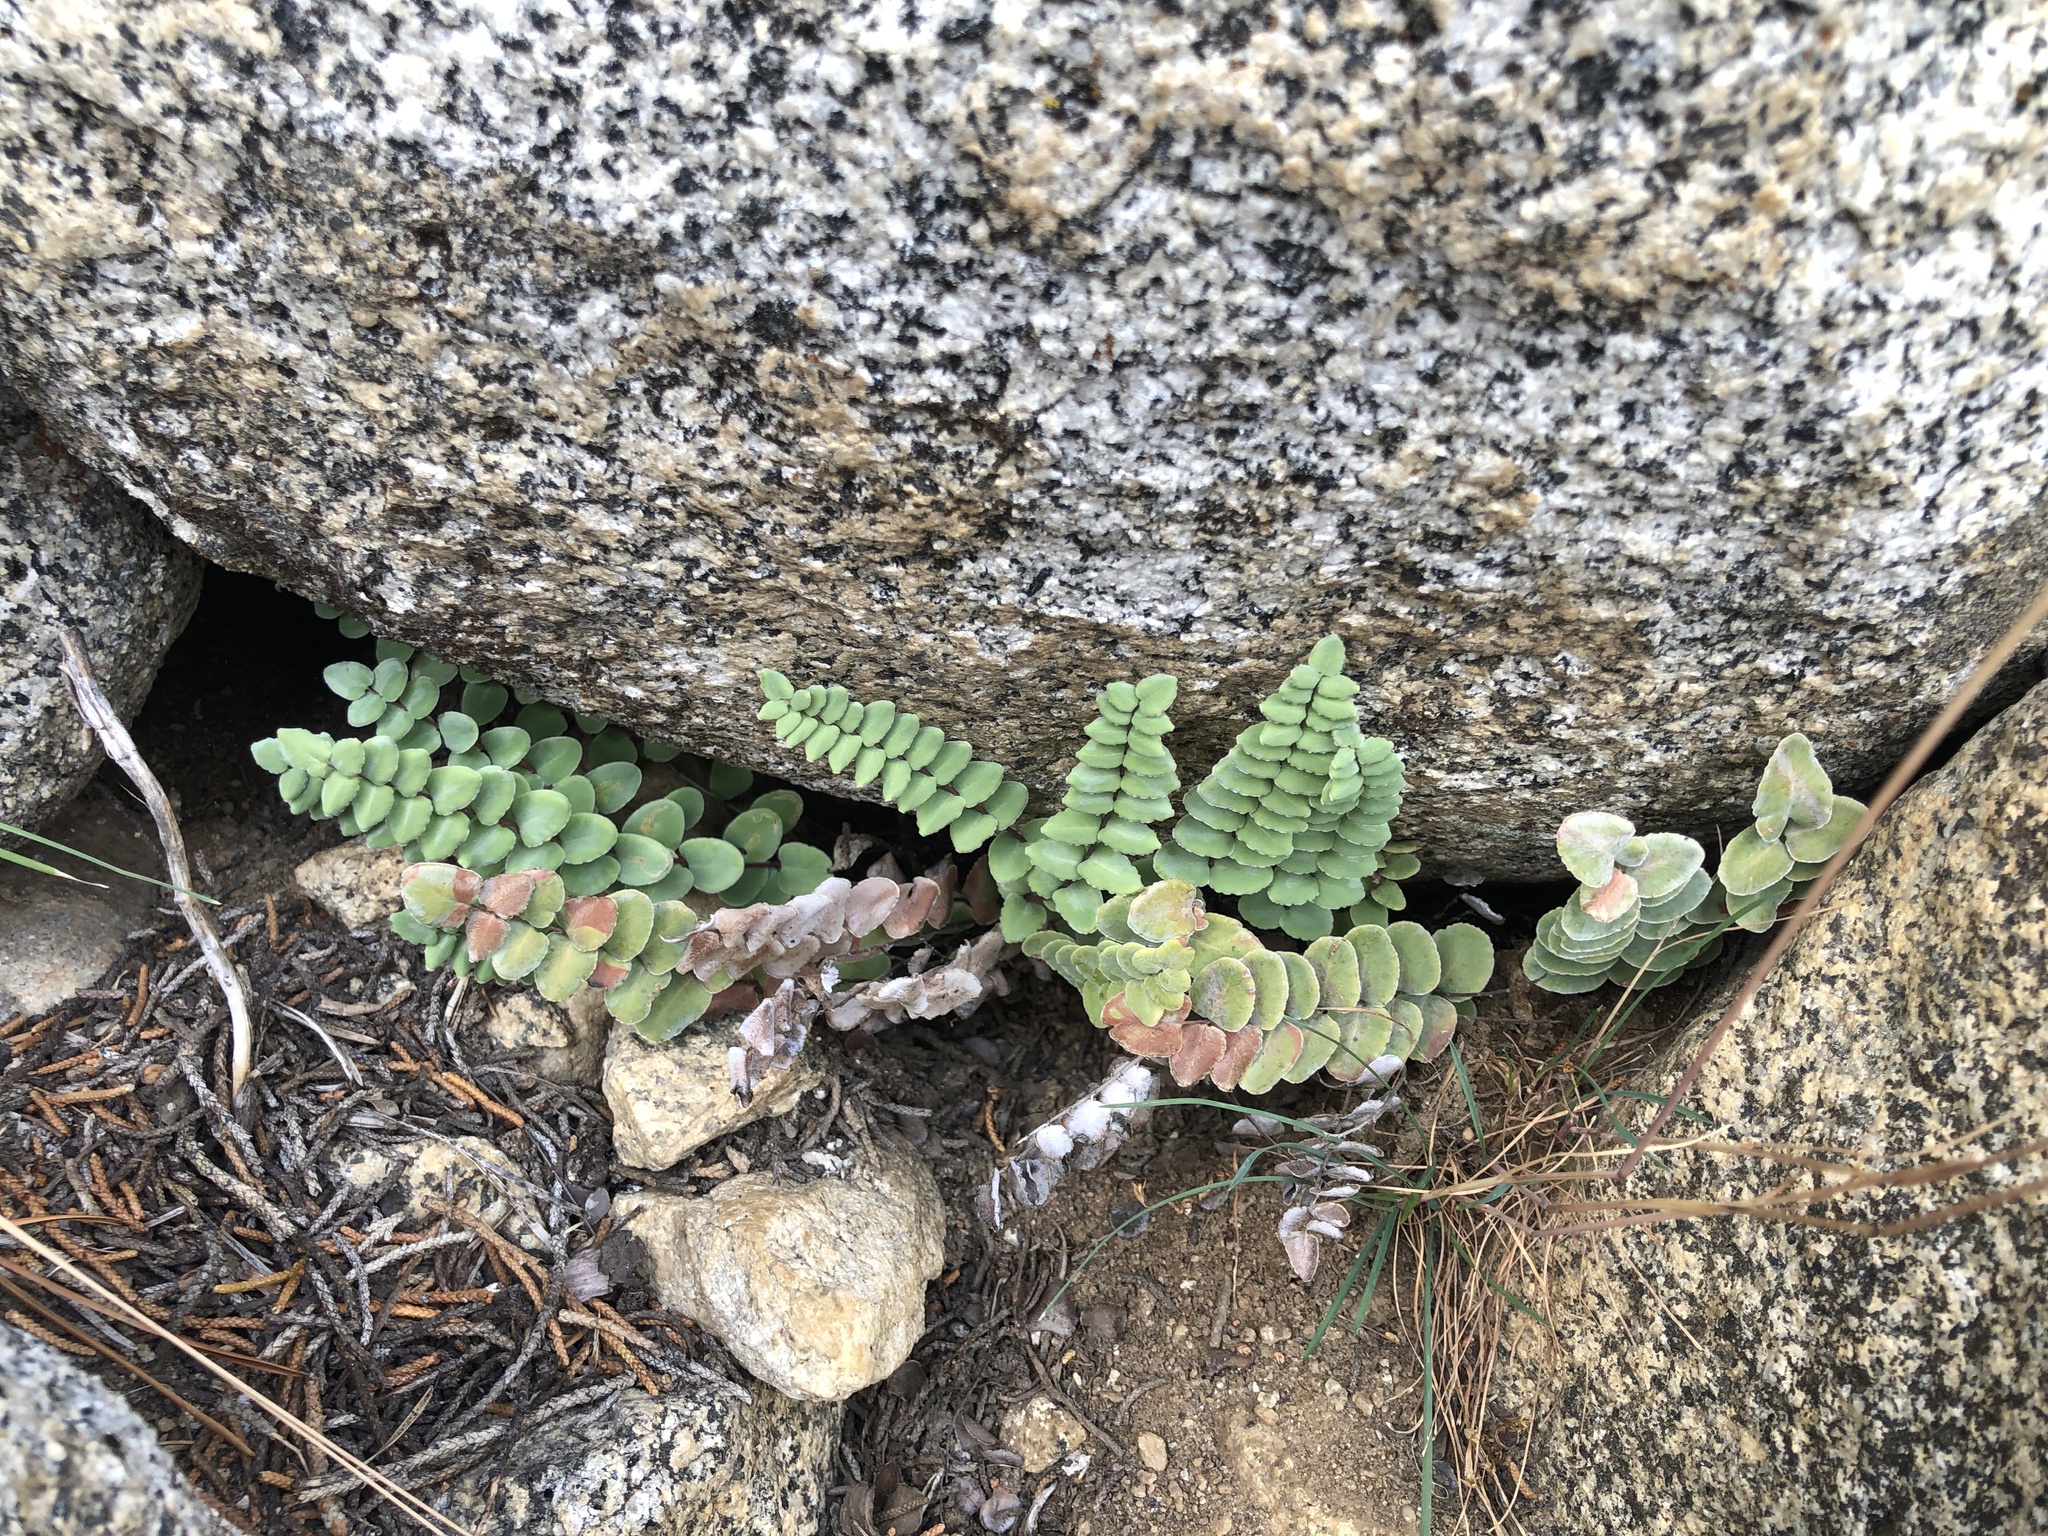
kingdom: Plantae
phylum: Tracheophyta
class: Polypodiopsida
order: Polypodiales
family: Pteridaceae
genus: Pellaea
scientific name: Pellaea bridgesii
